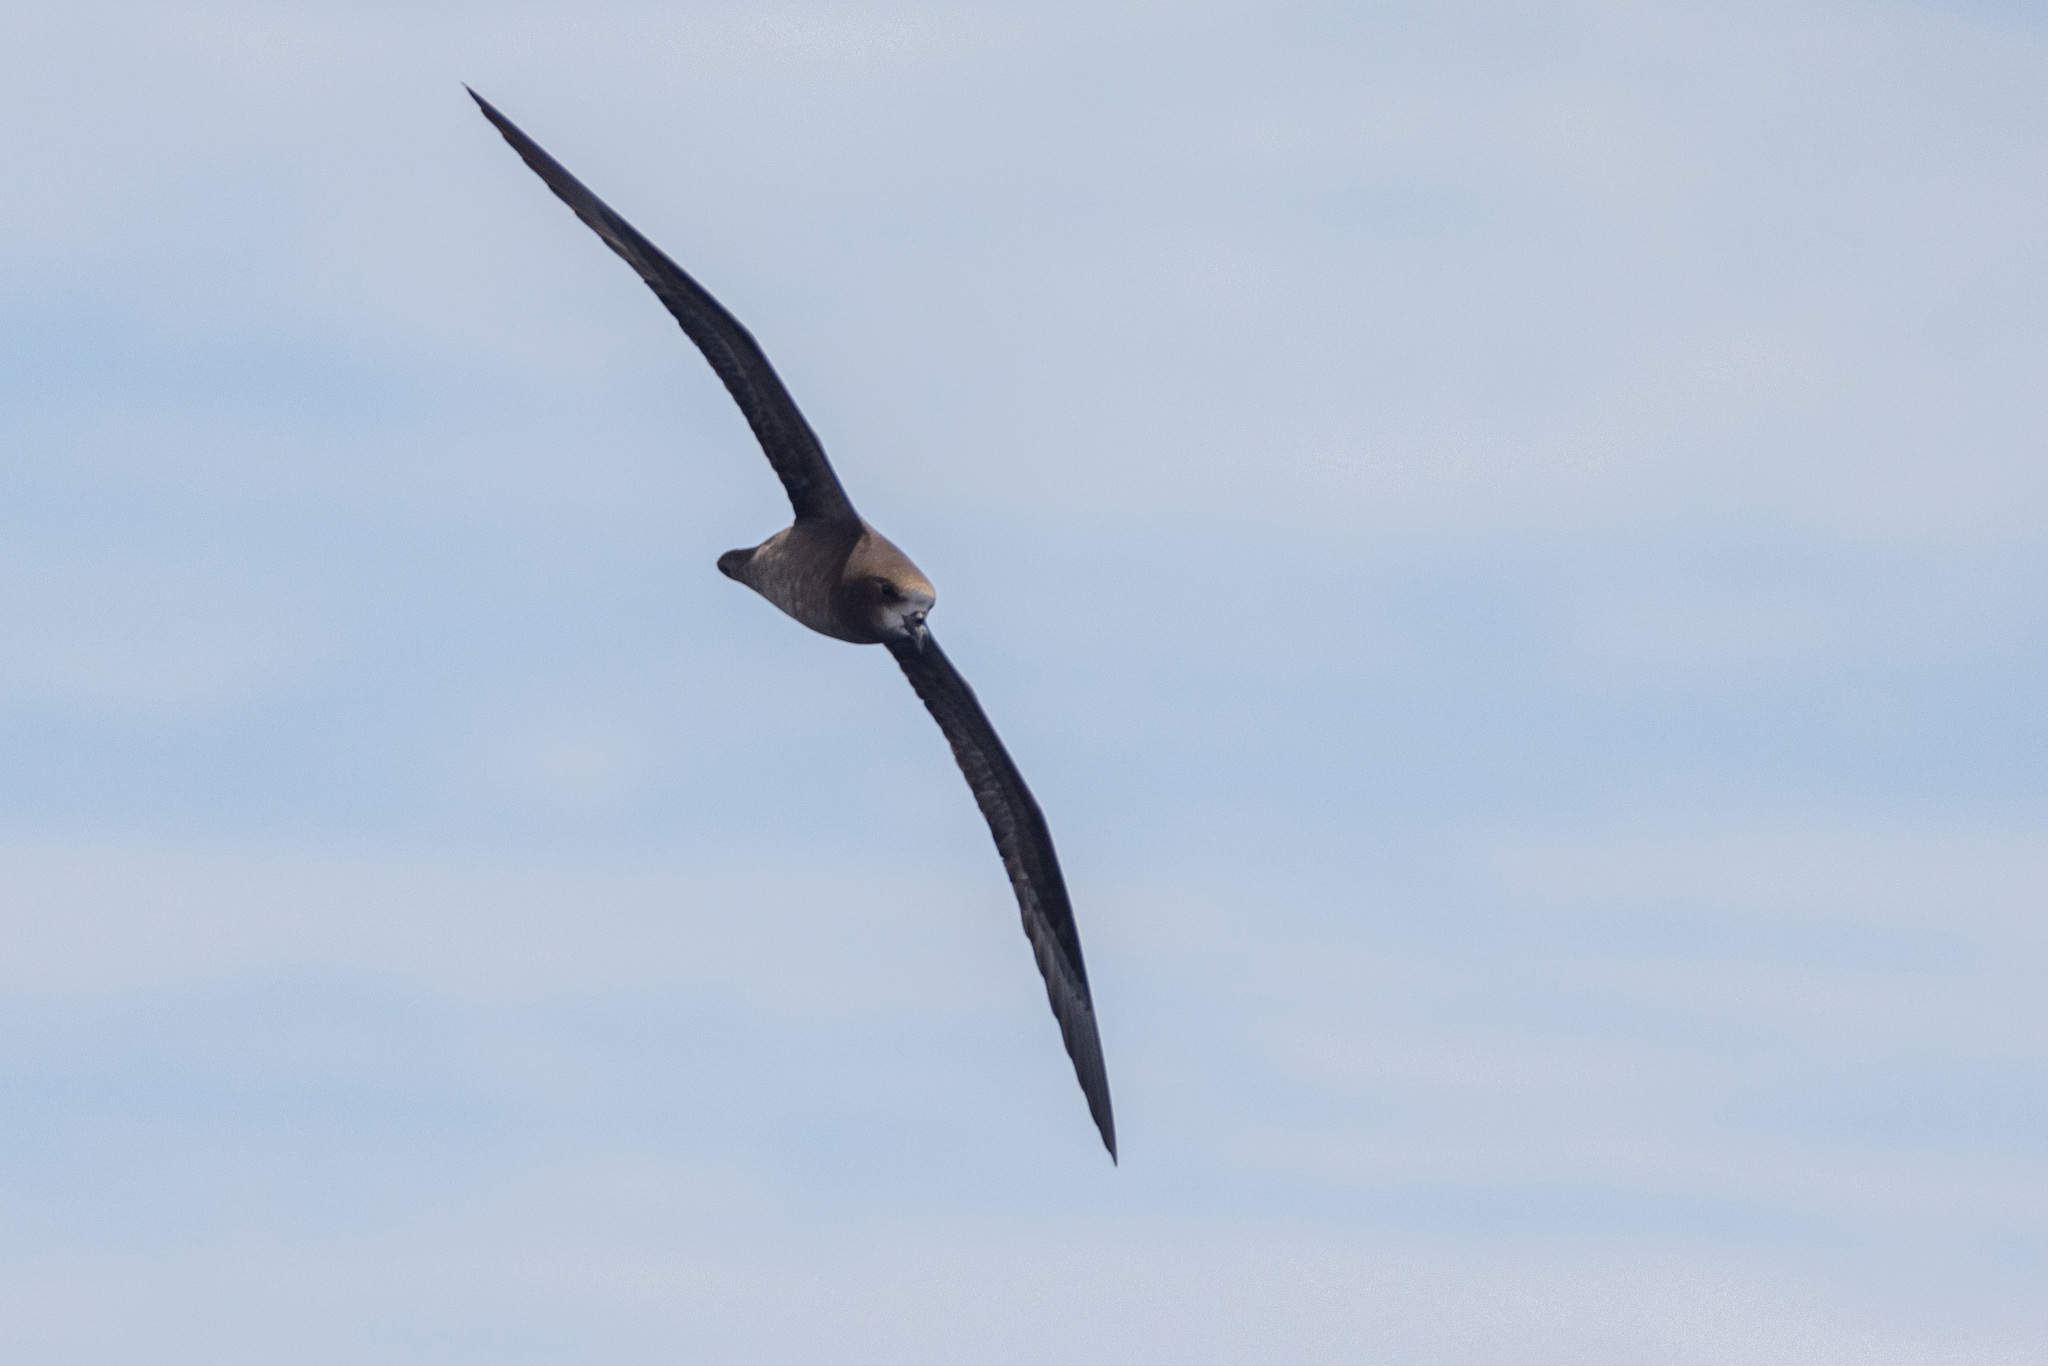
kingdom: Animalia
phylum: Chordata
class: Aves
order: Procellariiformes
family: Procellariidae
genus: Pterodroma
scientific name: Pterodroma macroptera
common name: Great-winged petrel
